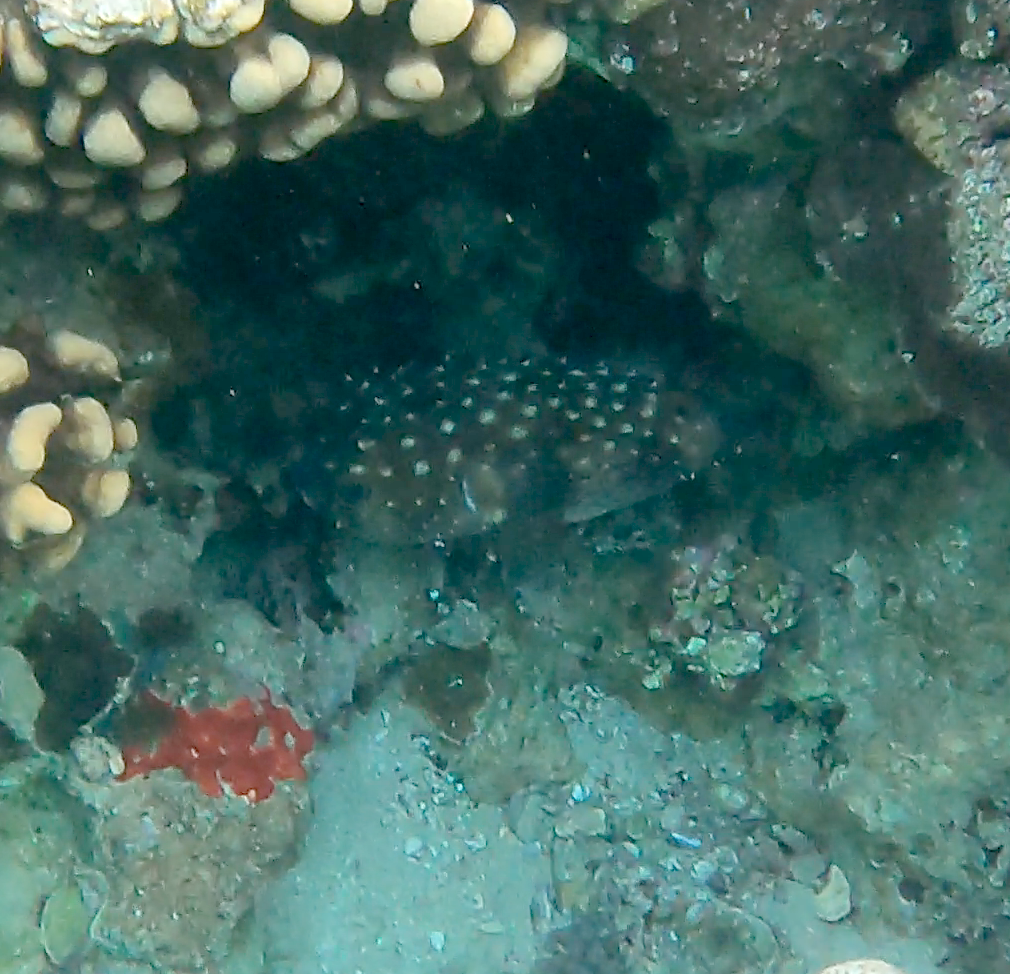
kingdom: Animalia
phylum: Chordata
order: Tetraodontiformes
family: Diodontidae
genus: Cyclichthys
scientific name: Cyclichthys spilostylus
